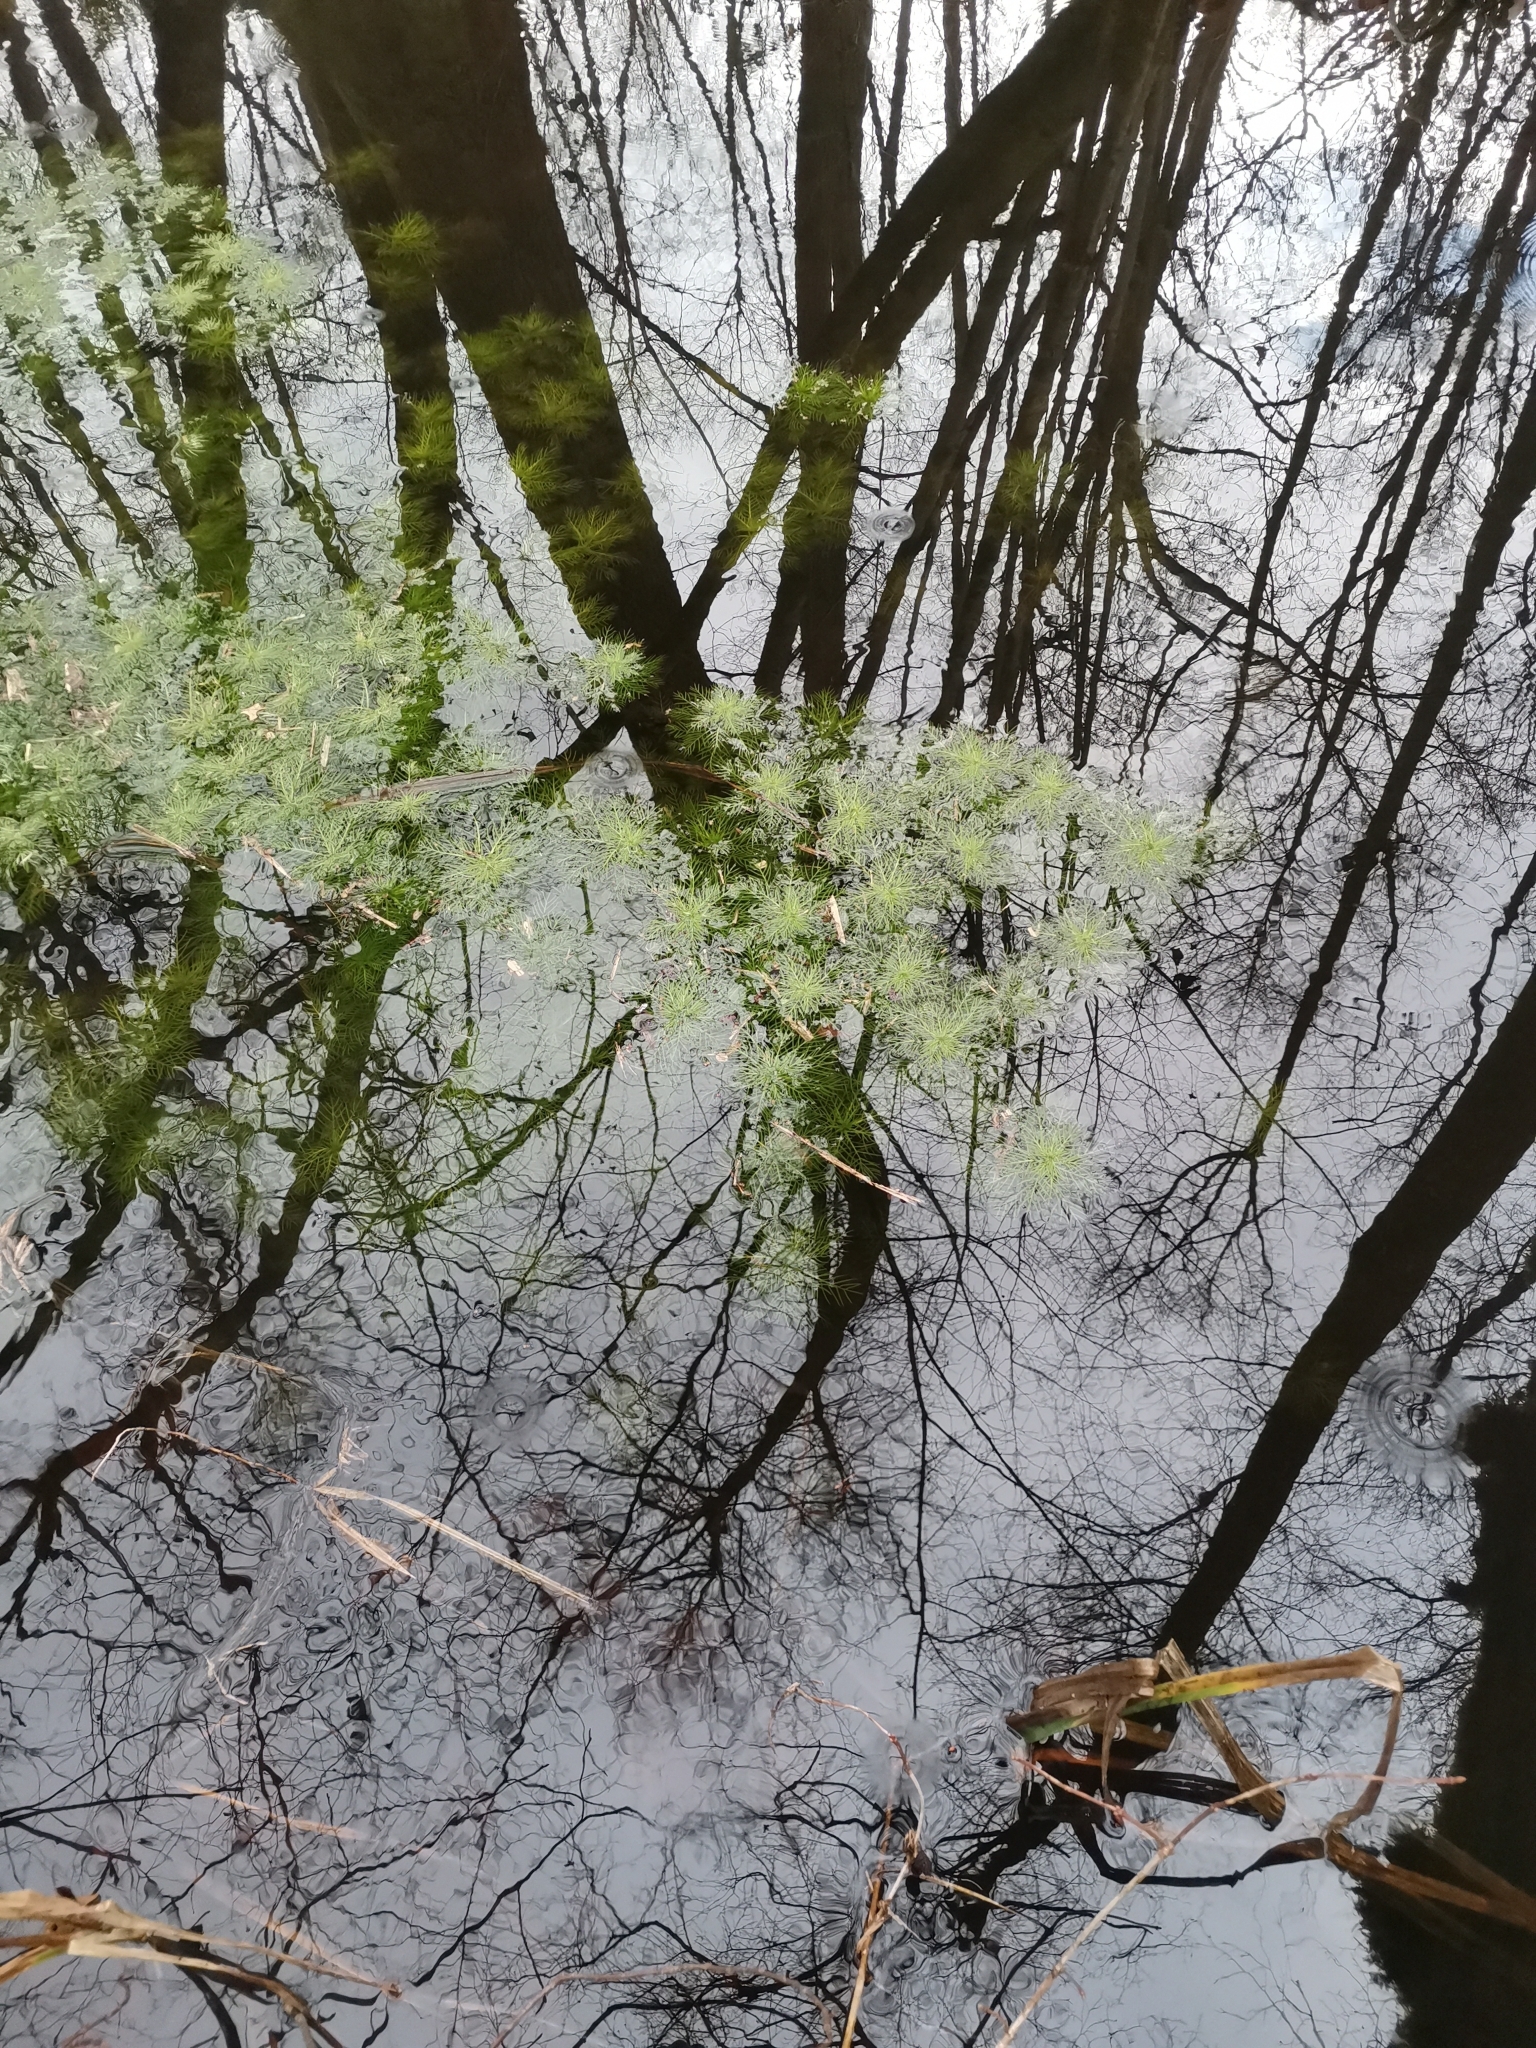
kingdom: Plantae
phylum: Tracheophyta
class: Magnoliopsida
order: Ericales
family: Primulaceae
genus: Hottonia
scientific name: Hottonia palustris
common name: Water-violet
